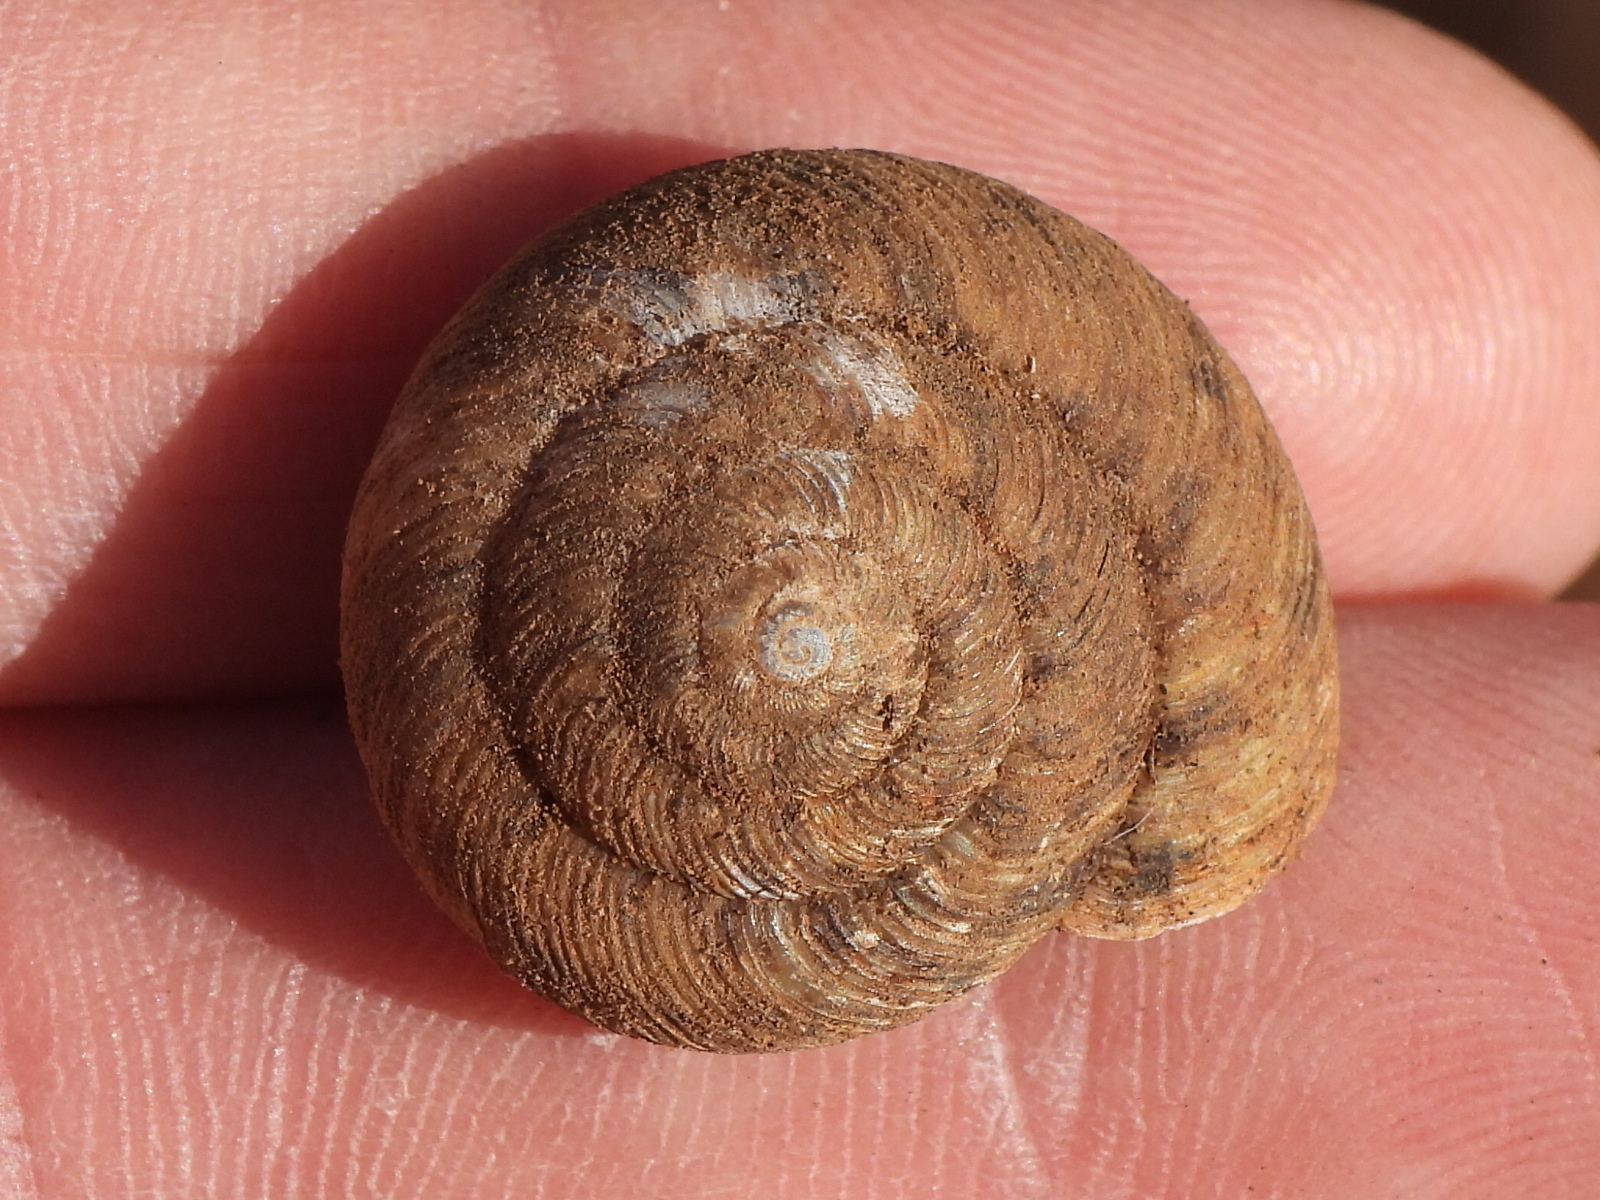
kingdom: Animalia
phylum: Mollusca
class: Gastropoda
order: Stylommatophora
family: Discidae
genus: Anguispira
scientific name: Anguispira alternata
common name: Flamed tigersnail
